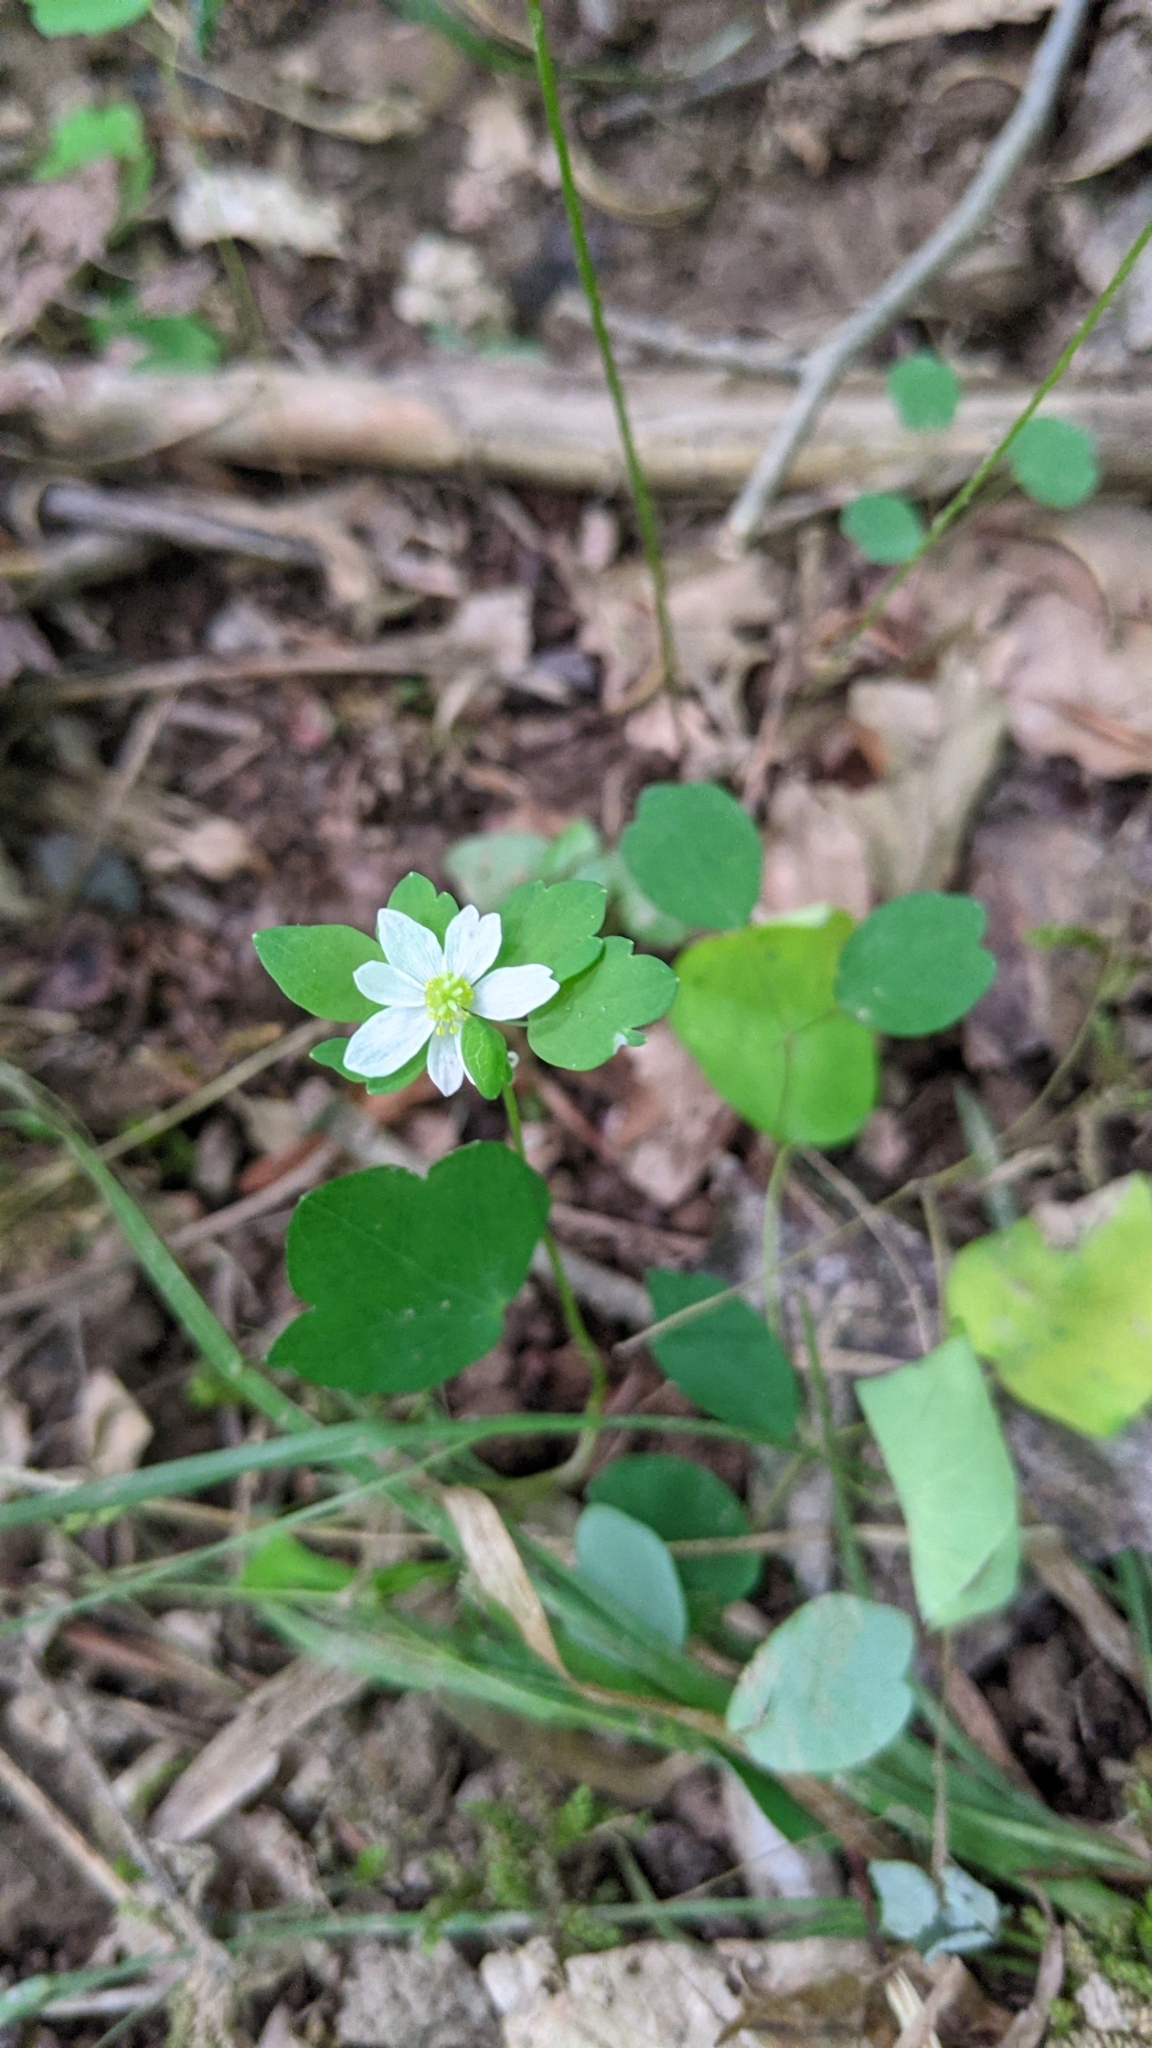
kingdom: Plantae
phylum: Tracheophyta
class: Magnoliopsida
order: Ranunculales
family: Ranunculaceae
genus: Thalictrum
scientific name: Thalictrum thalictroides
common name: Rue-anemone
